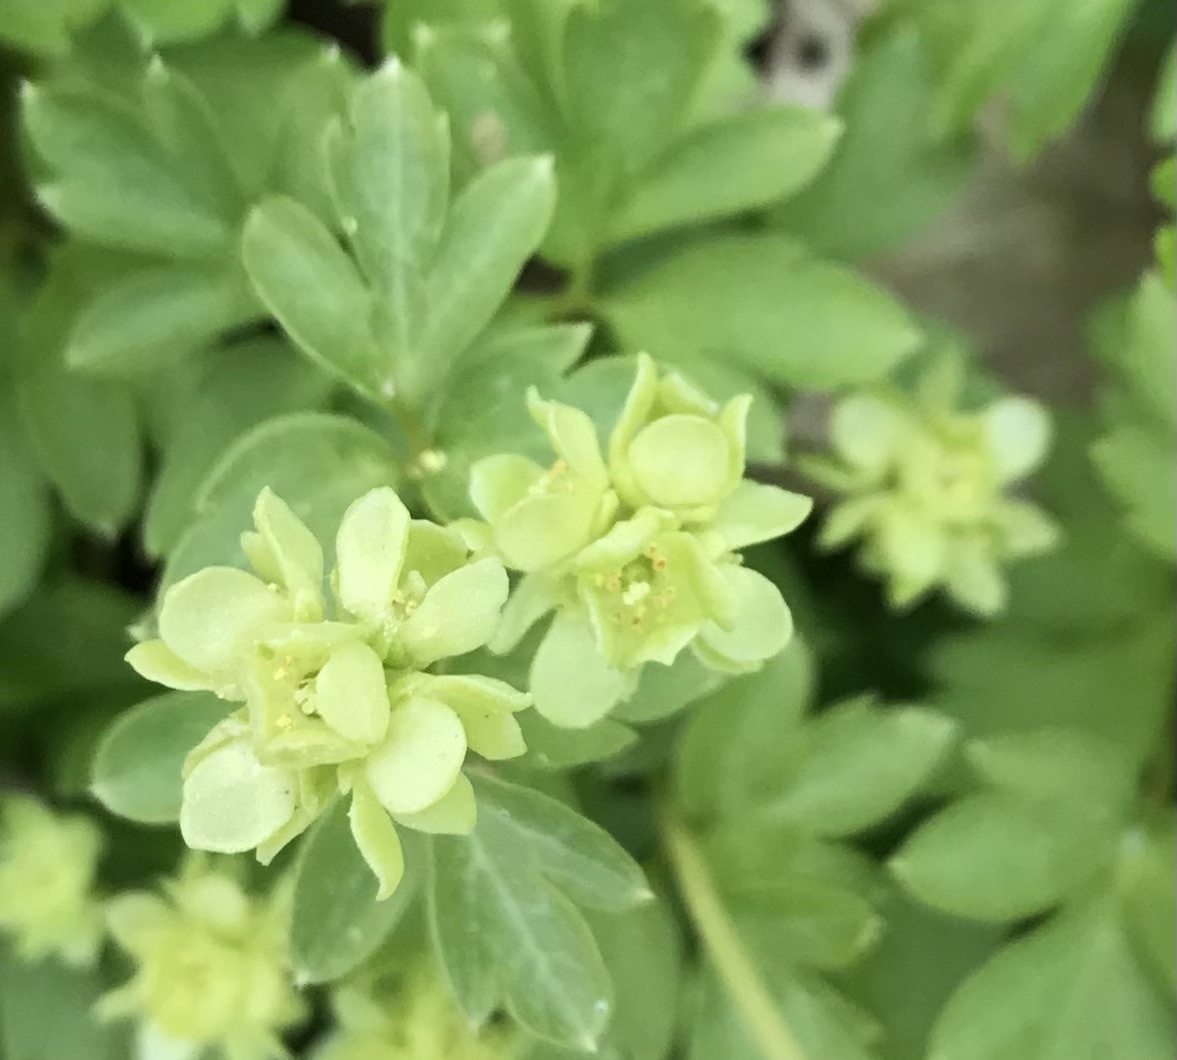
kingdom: Plantae
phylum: Tracheophyta
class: Magnoliopsida
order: Dipsacales
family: Viburnaceae
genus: Adoxa
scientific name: Adoxa moschatellina
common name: Moschatel
